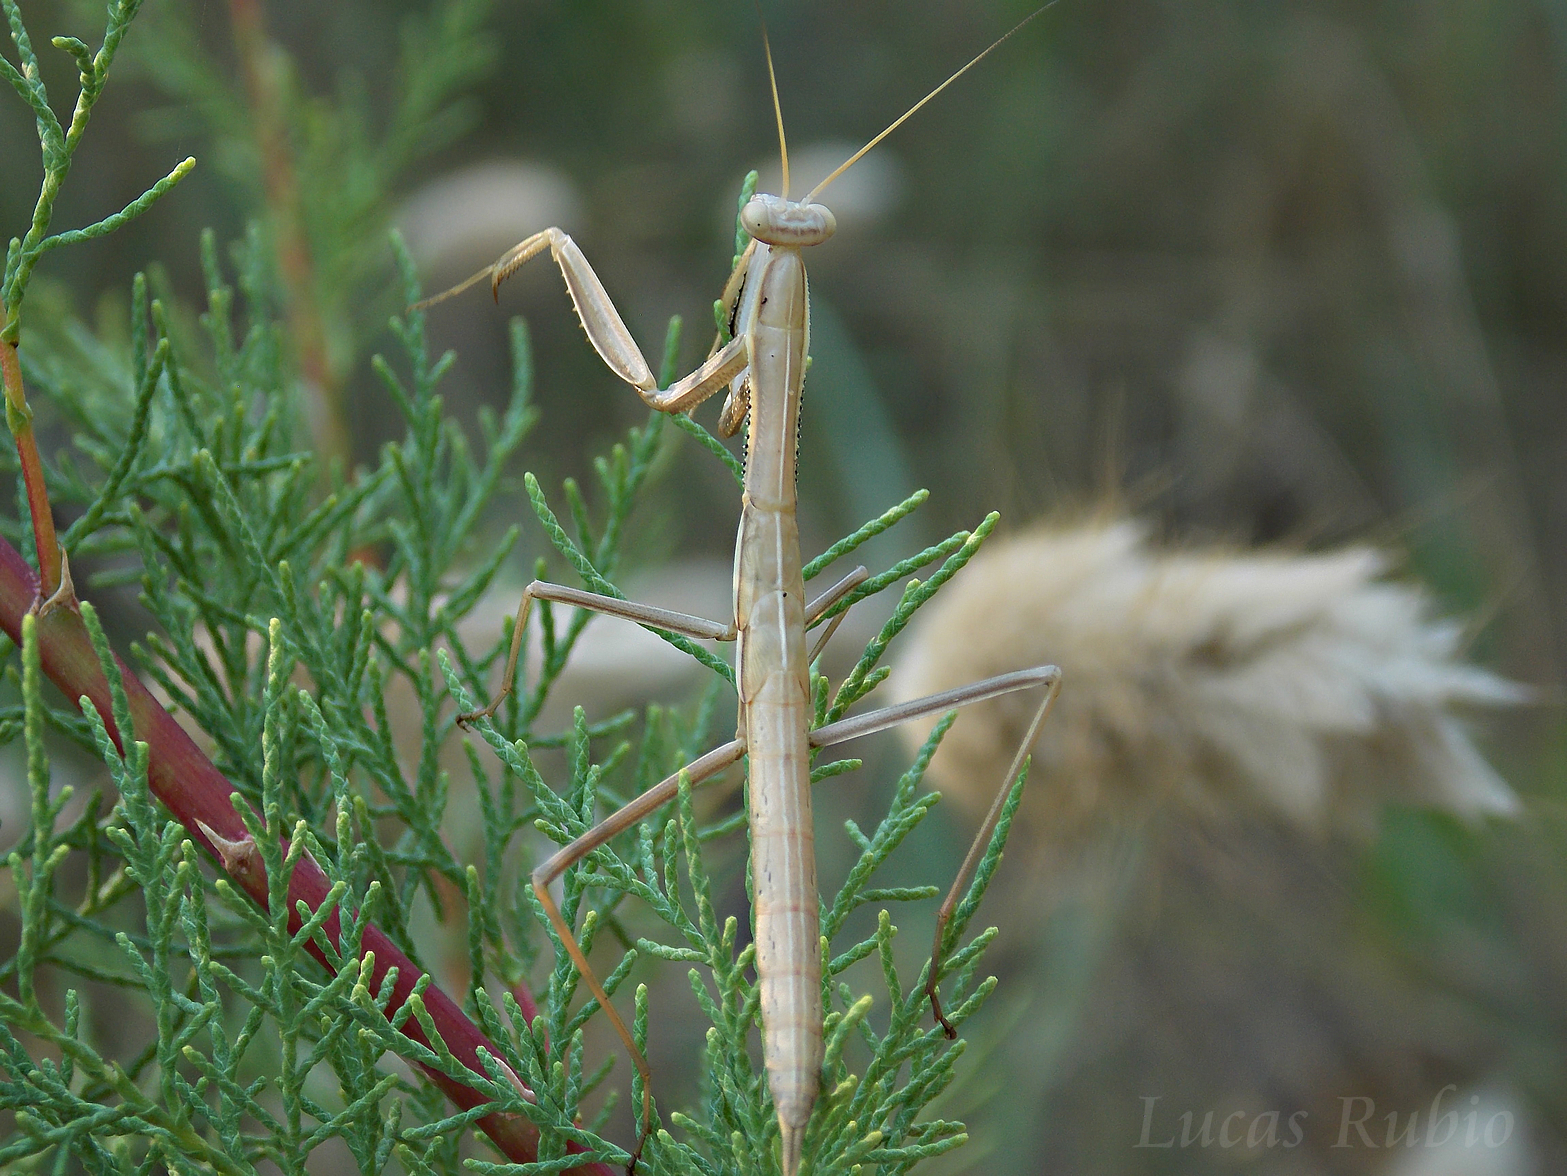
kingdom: Animalia
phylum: Arthropoda
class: Insecta
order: Mantodea
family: Coptopterygidae
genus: Coptopteryx
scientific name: Coptopteryx argentina
